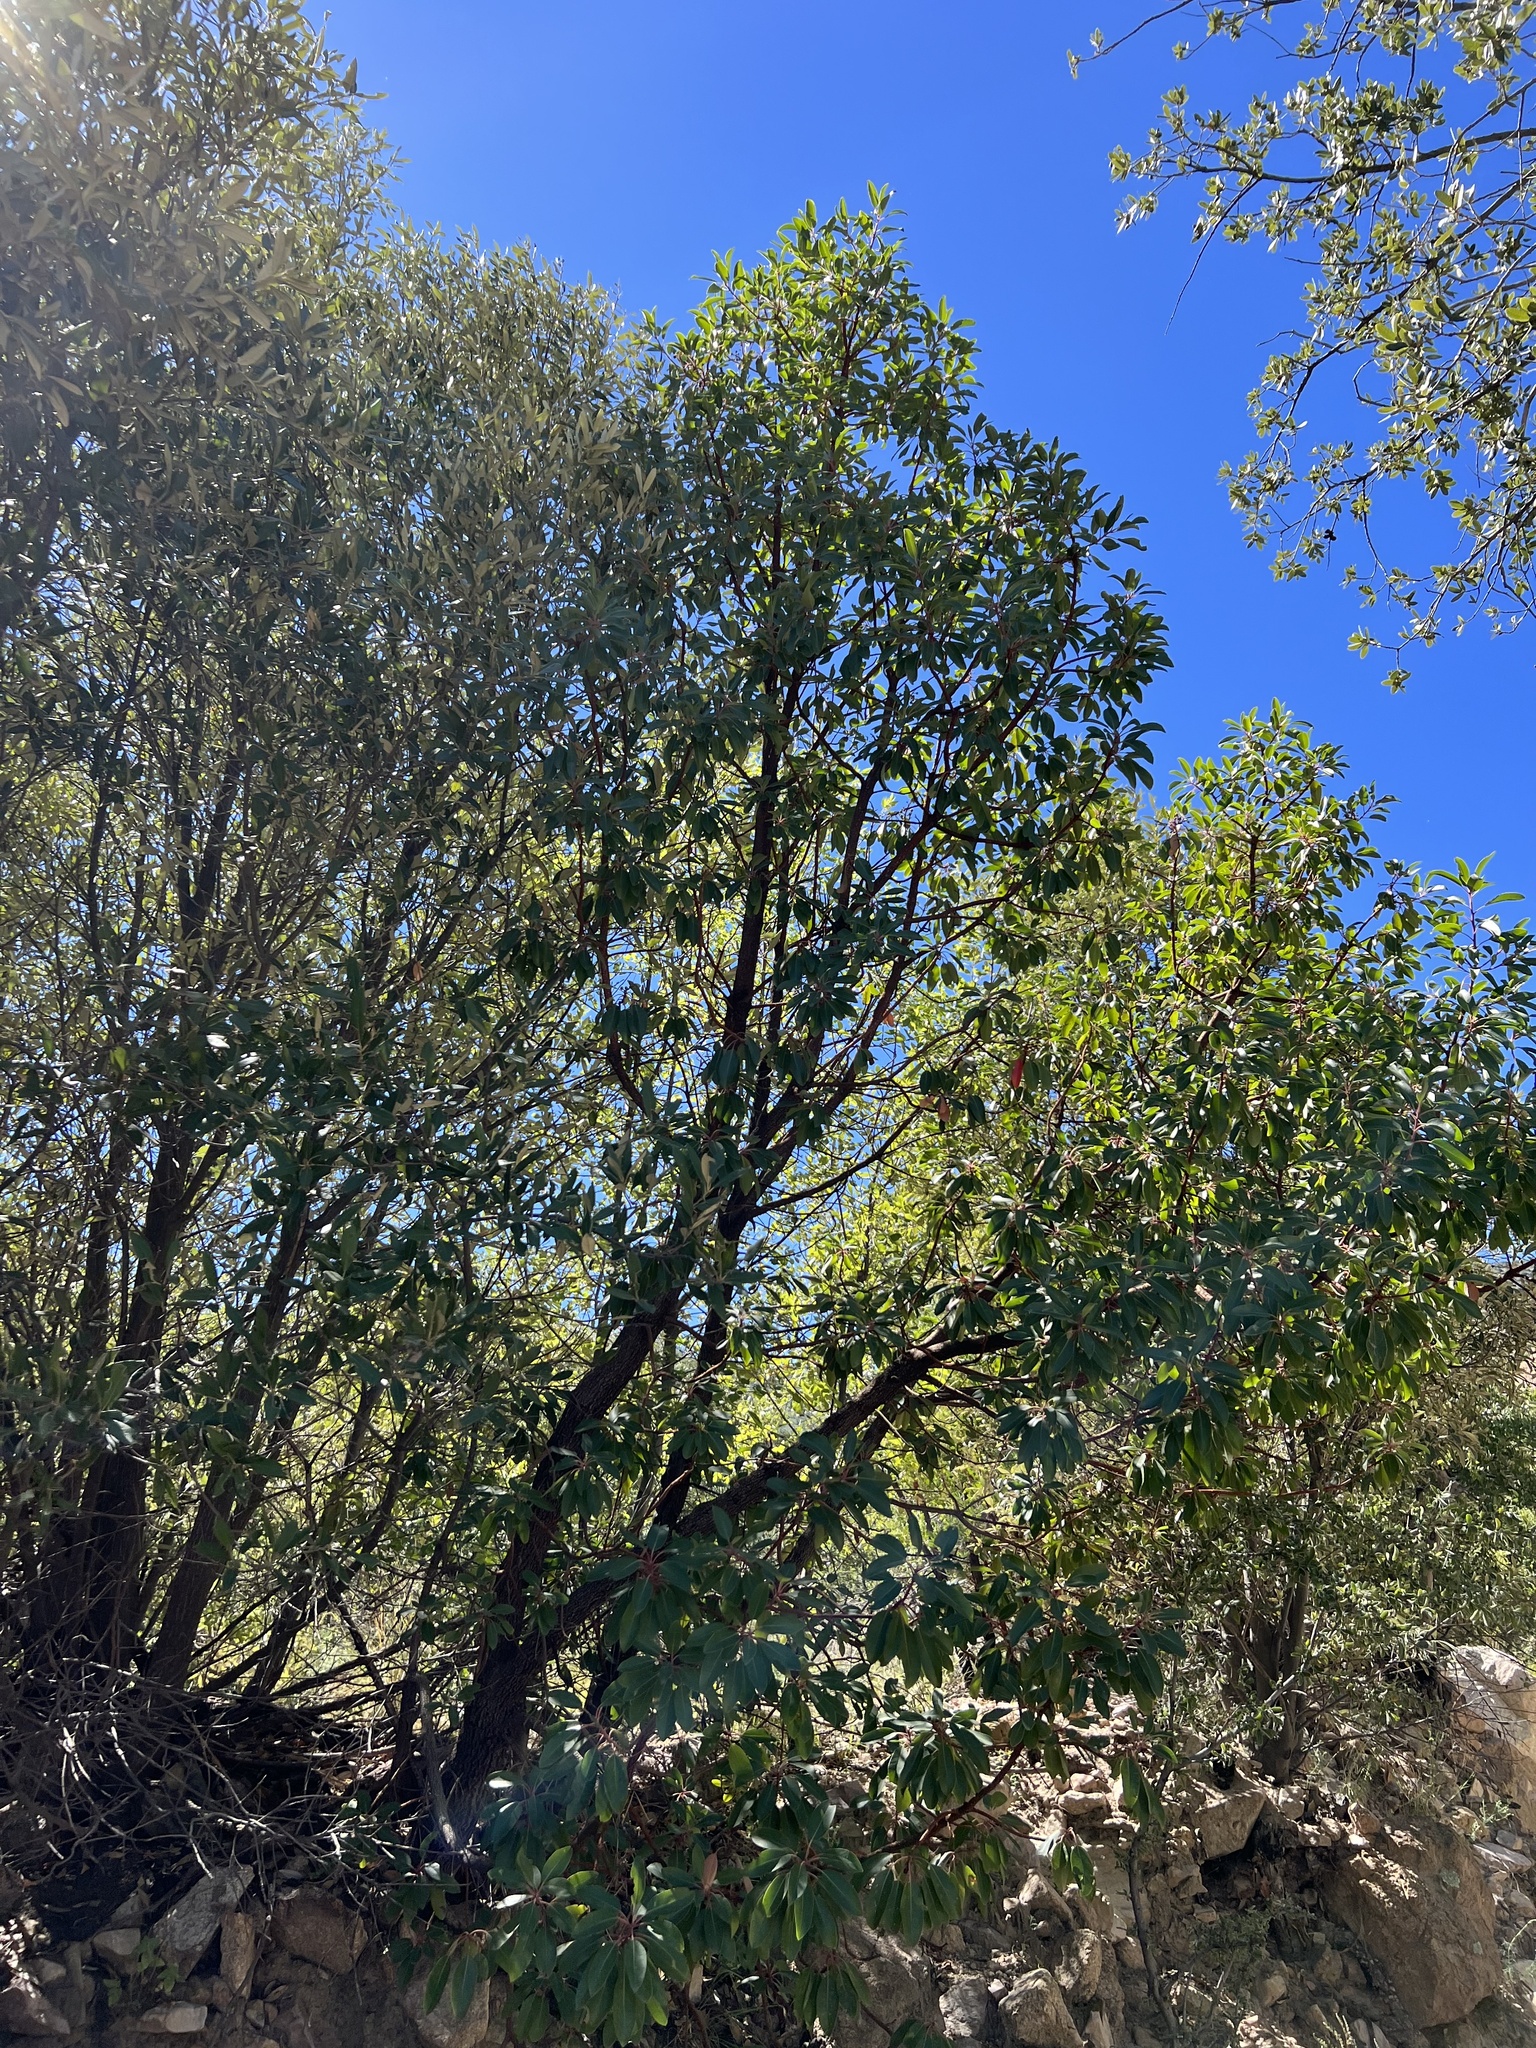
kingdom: Plantae
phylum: Tracheophyta
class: Magnoliopsida
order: Ericales
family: Ericaceae
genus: Arbutus
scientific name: Arbutus arizonica
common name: Arizona madrone
